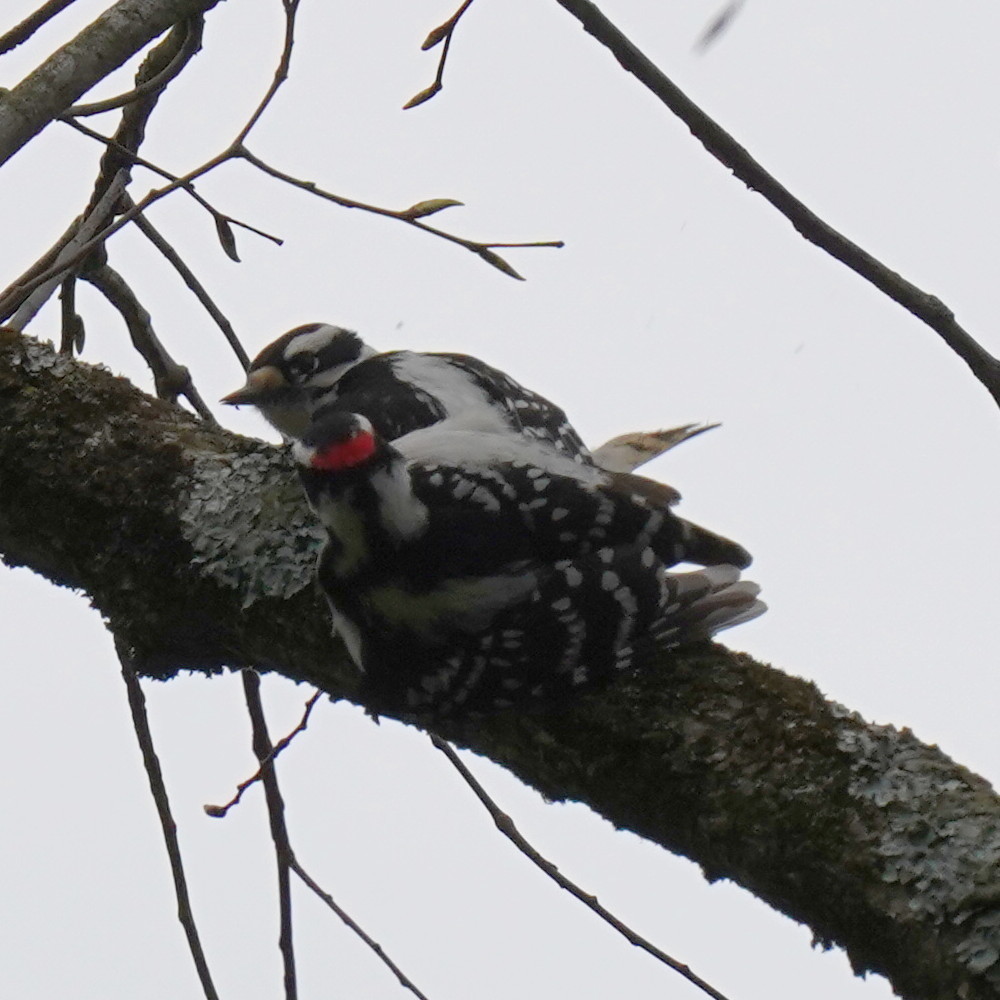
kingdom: Animalia
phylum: Chordata
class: Aves
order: Piciformes
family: Picidae
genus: Dryobates
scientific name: Dryobates pubescens
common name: Downy woodpecker
